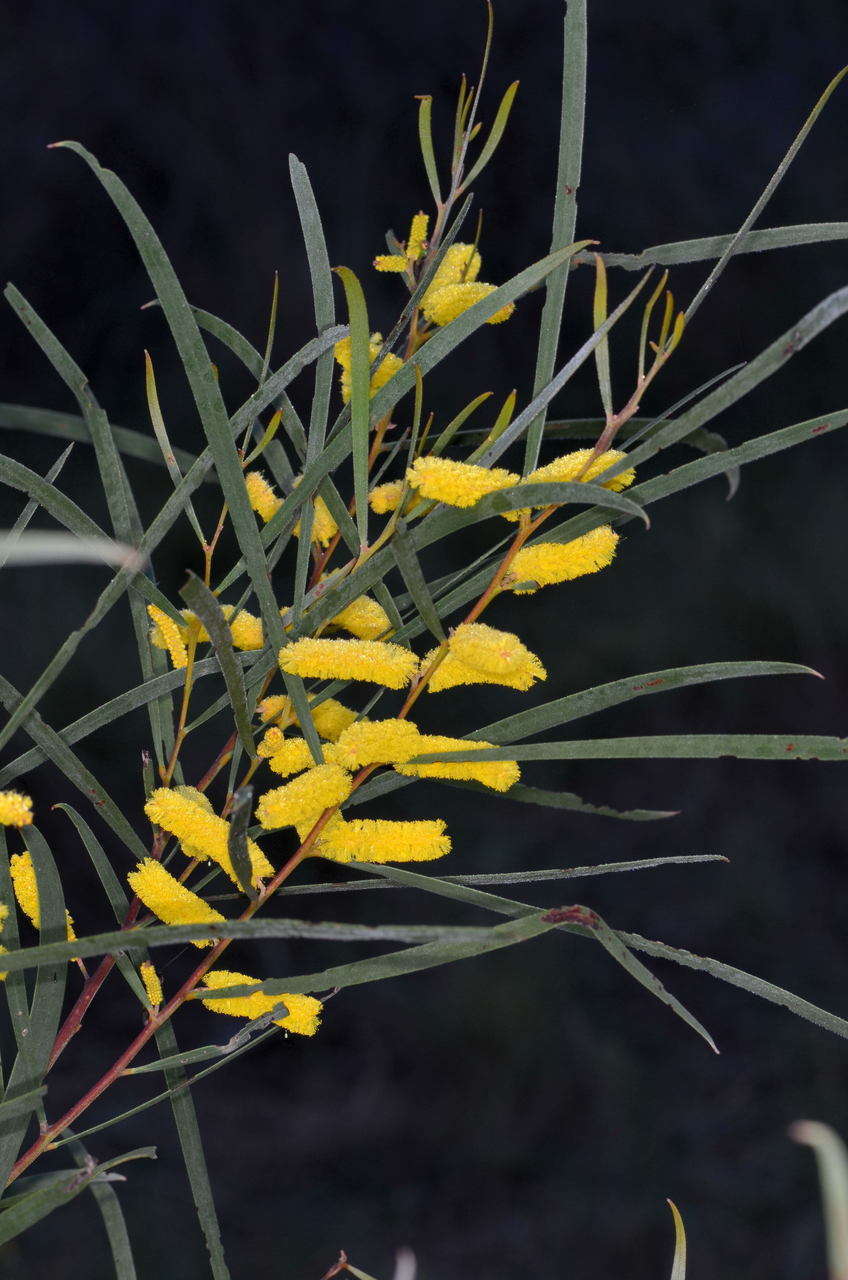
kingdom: Plantae
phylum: Tracheophyta
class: Magnoliopsida
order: Fabales
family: Fabaceae
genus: Acacia
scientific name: Acacia doratoxylon
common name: Lancewood
